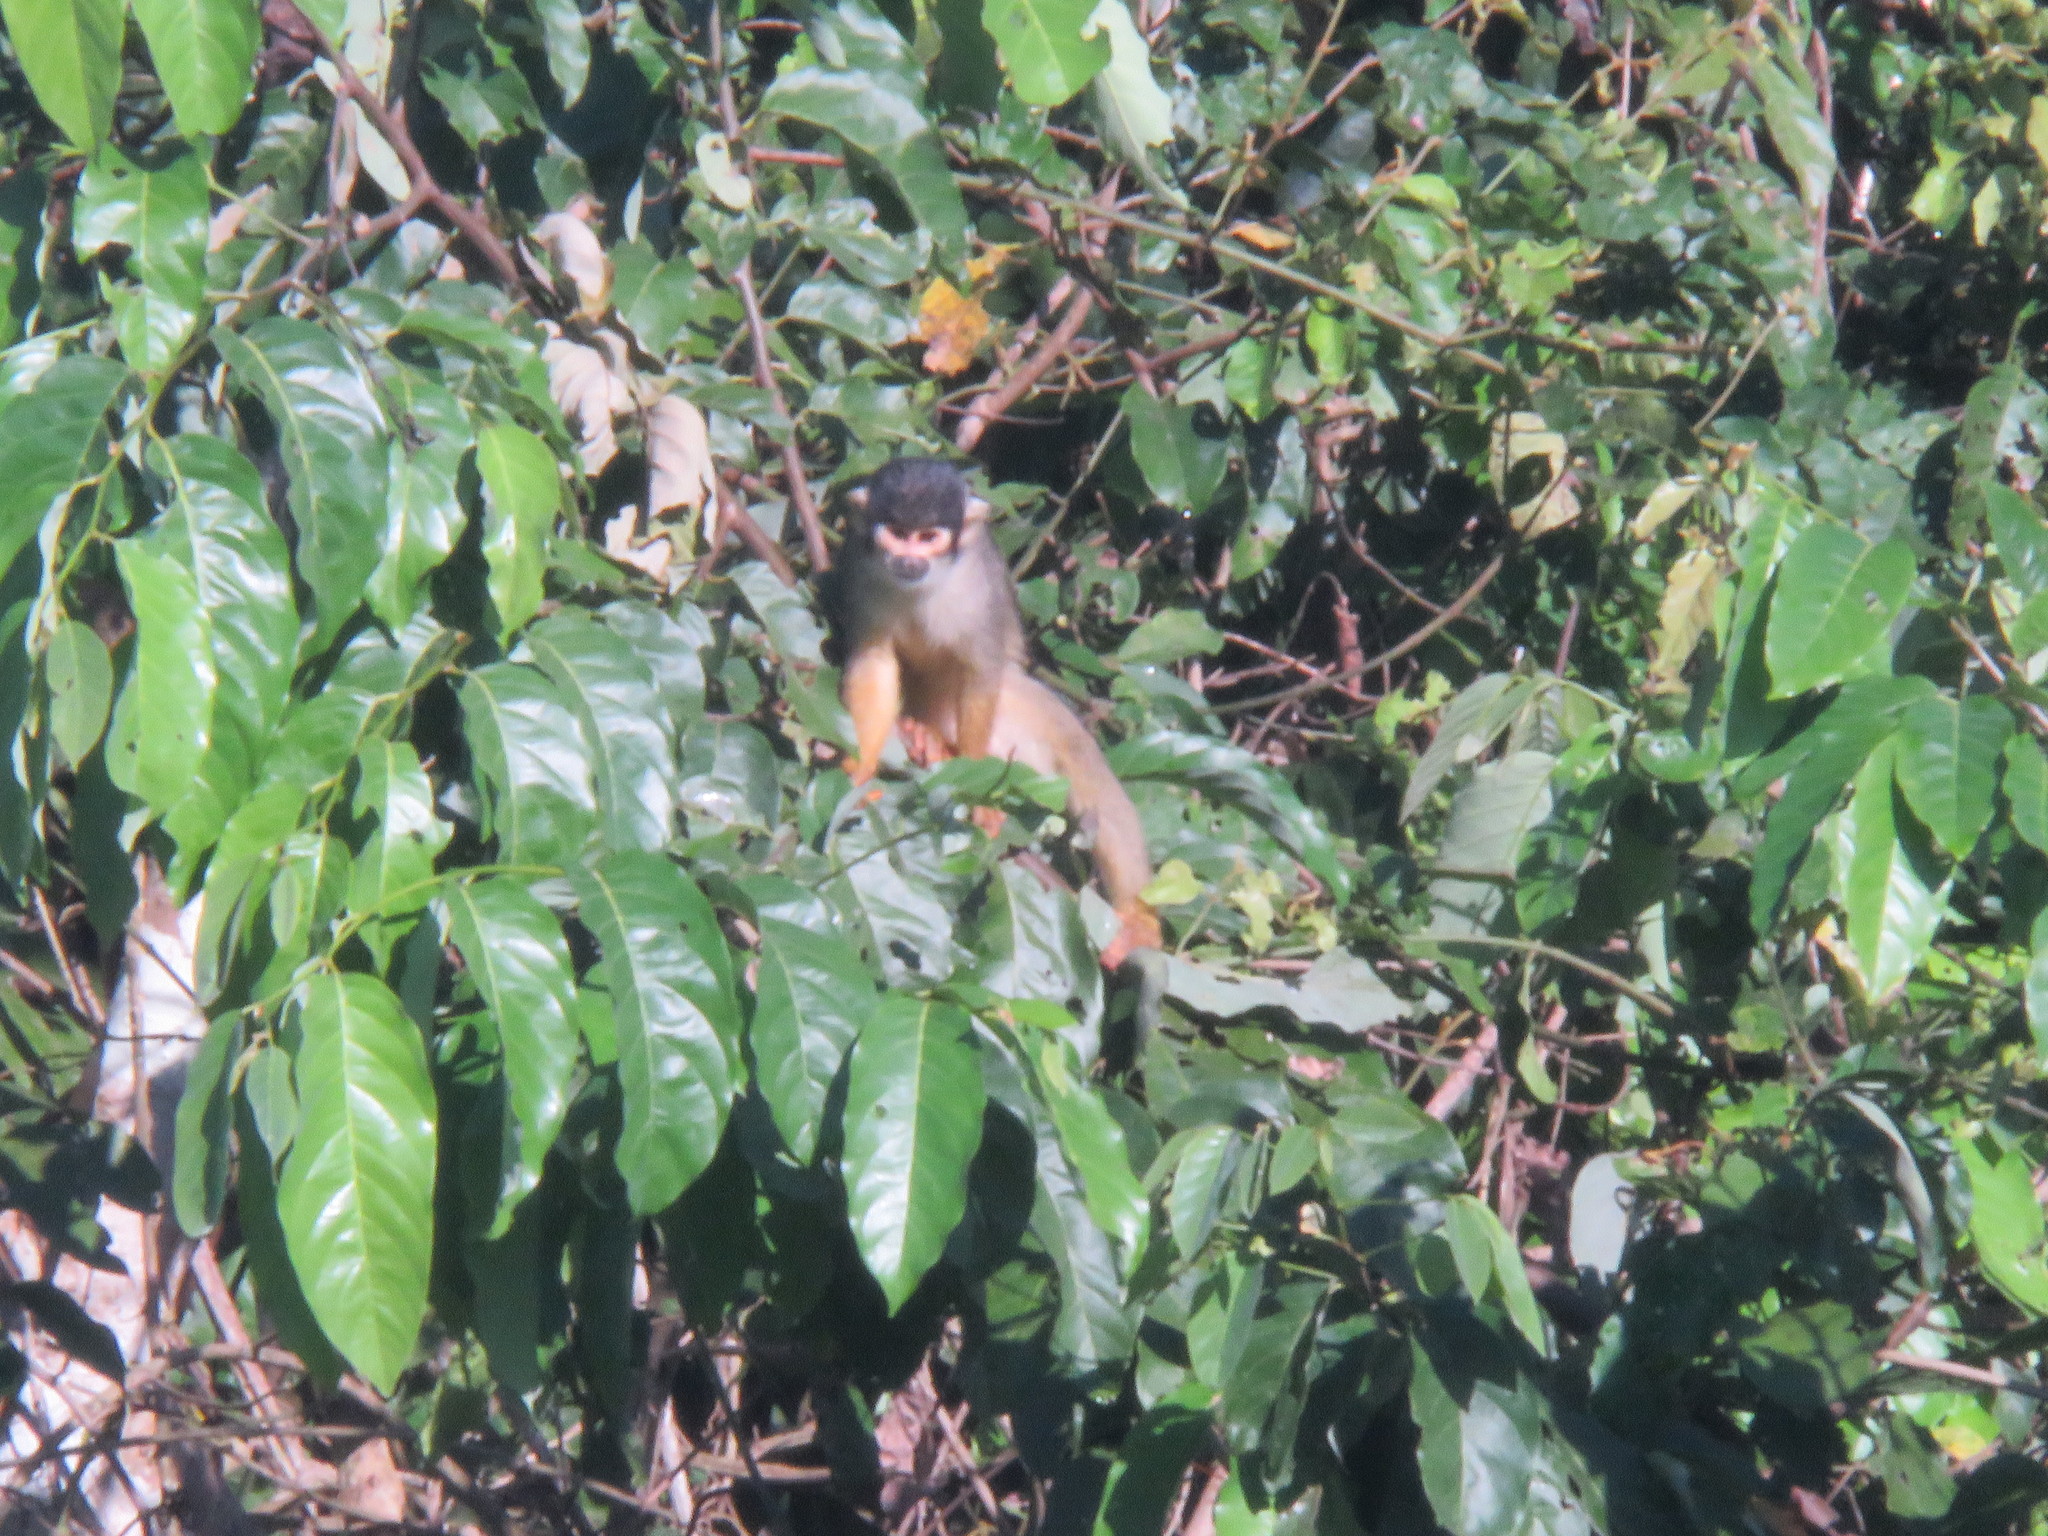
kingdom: Animalia
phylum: Chordata
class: Mammalia
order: Primates
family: Cebidae
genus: Saimiri
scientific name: Saimiri boliviensis
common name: Black-capped squirrel monkey
